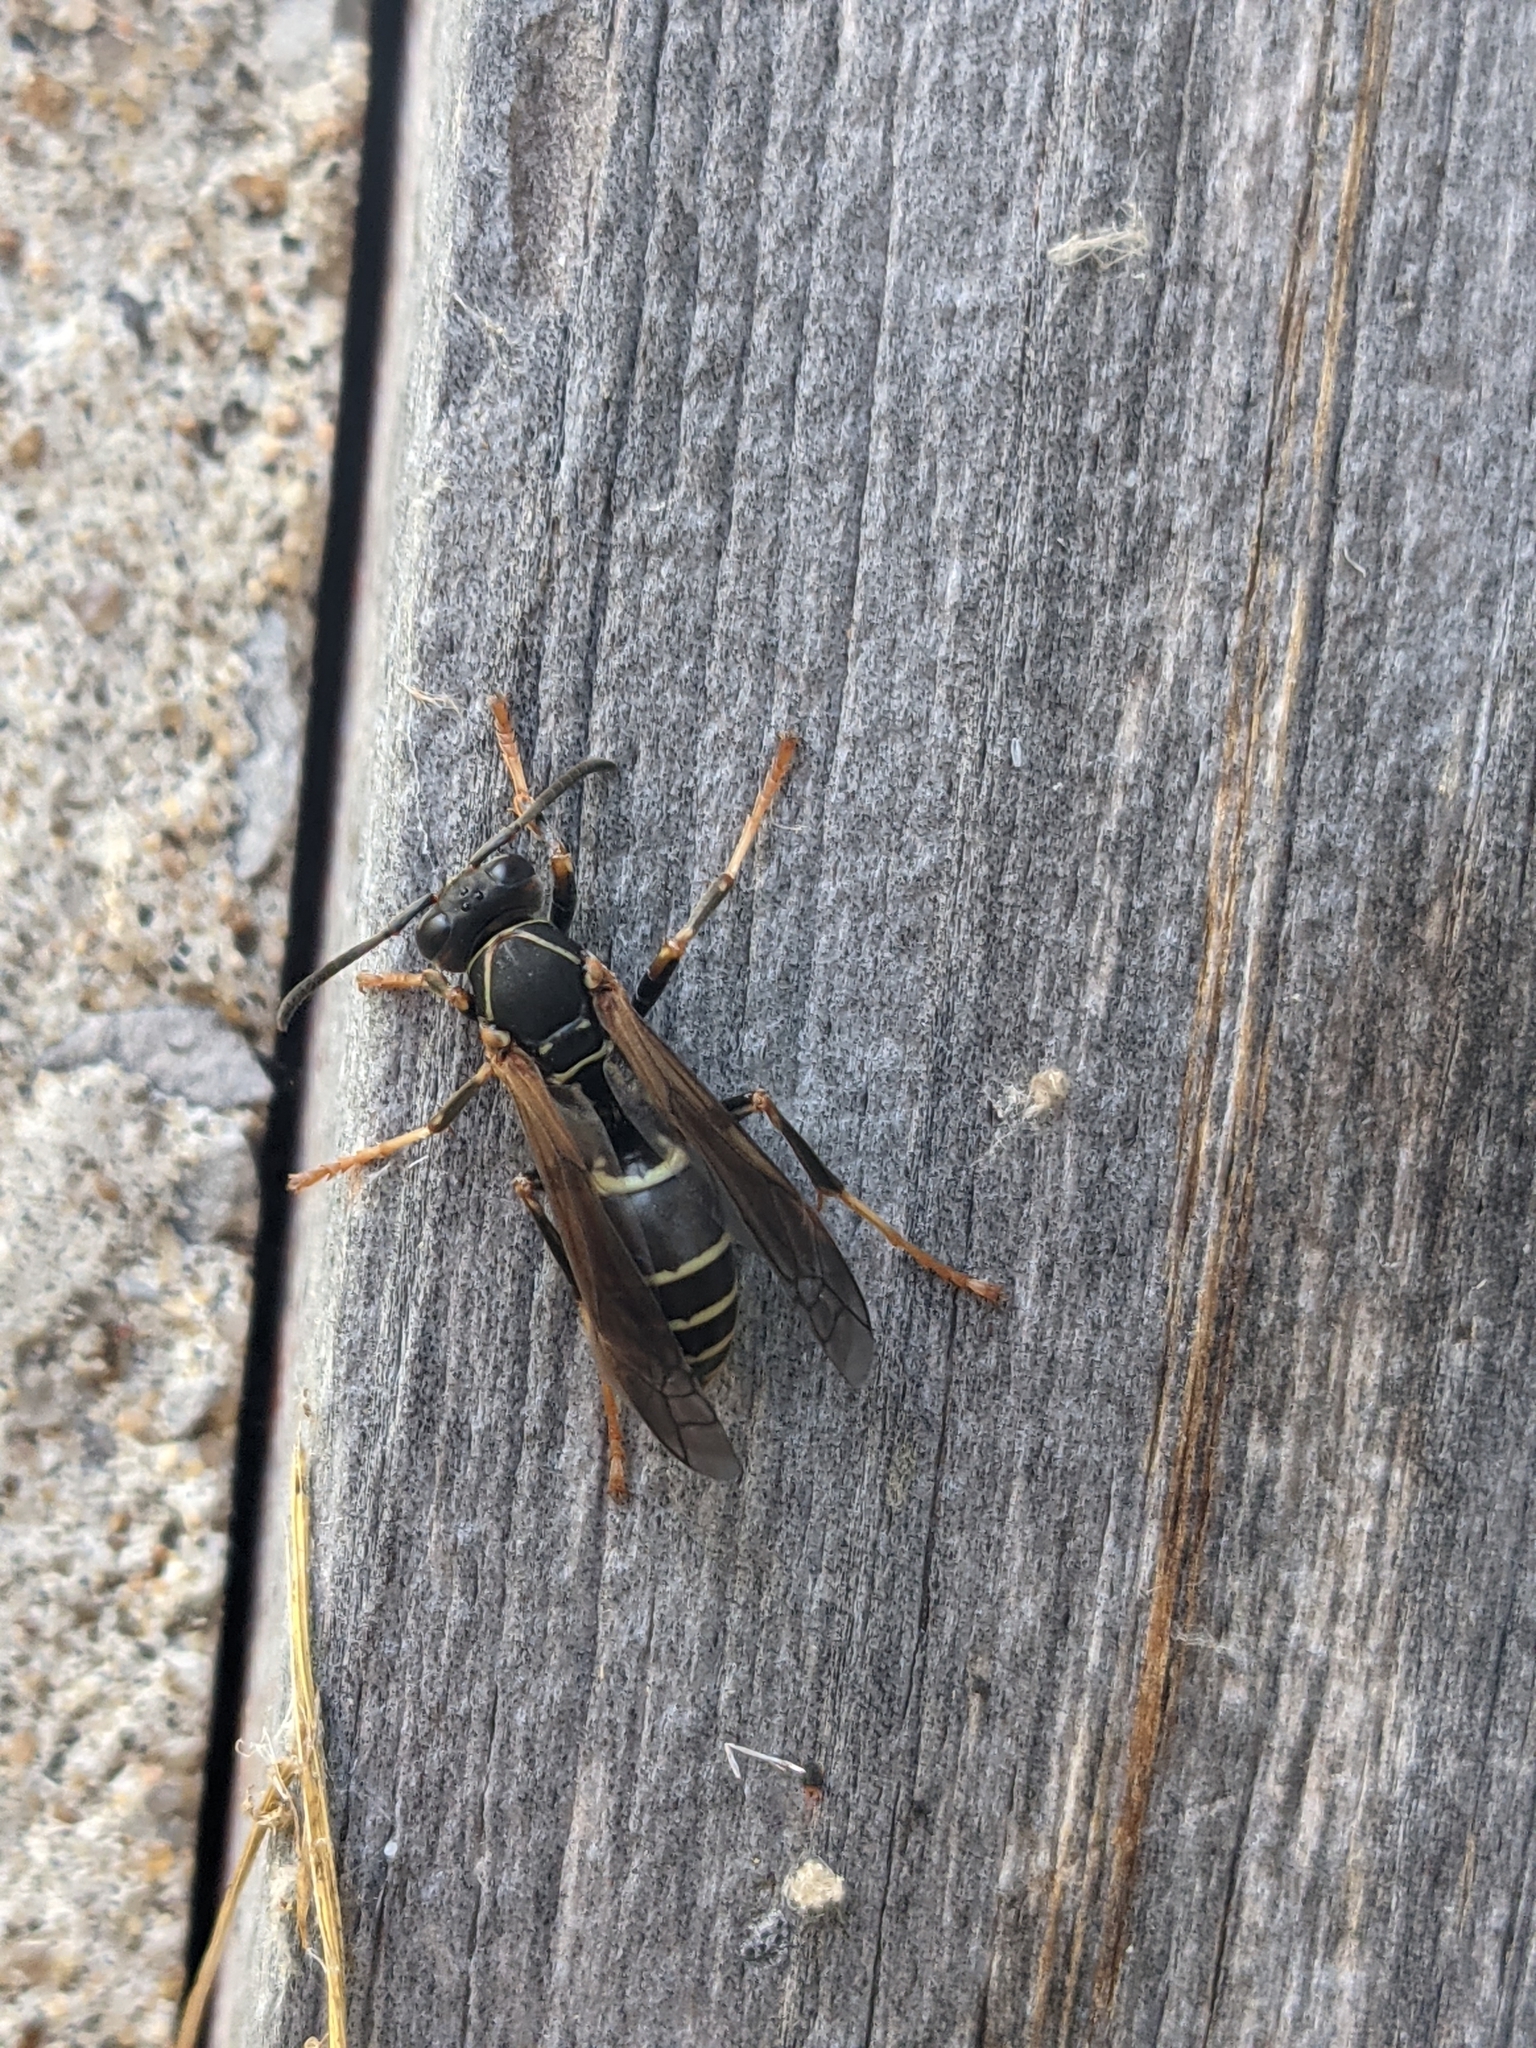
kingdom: Animalia
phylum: Arthropoda
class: Insecta
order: Hymenoptera
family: Eumenidae
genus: Polistes
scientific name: Polistes fuscatus
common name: Dark paper wasp
